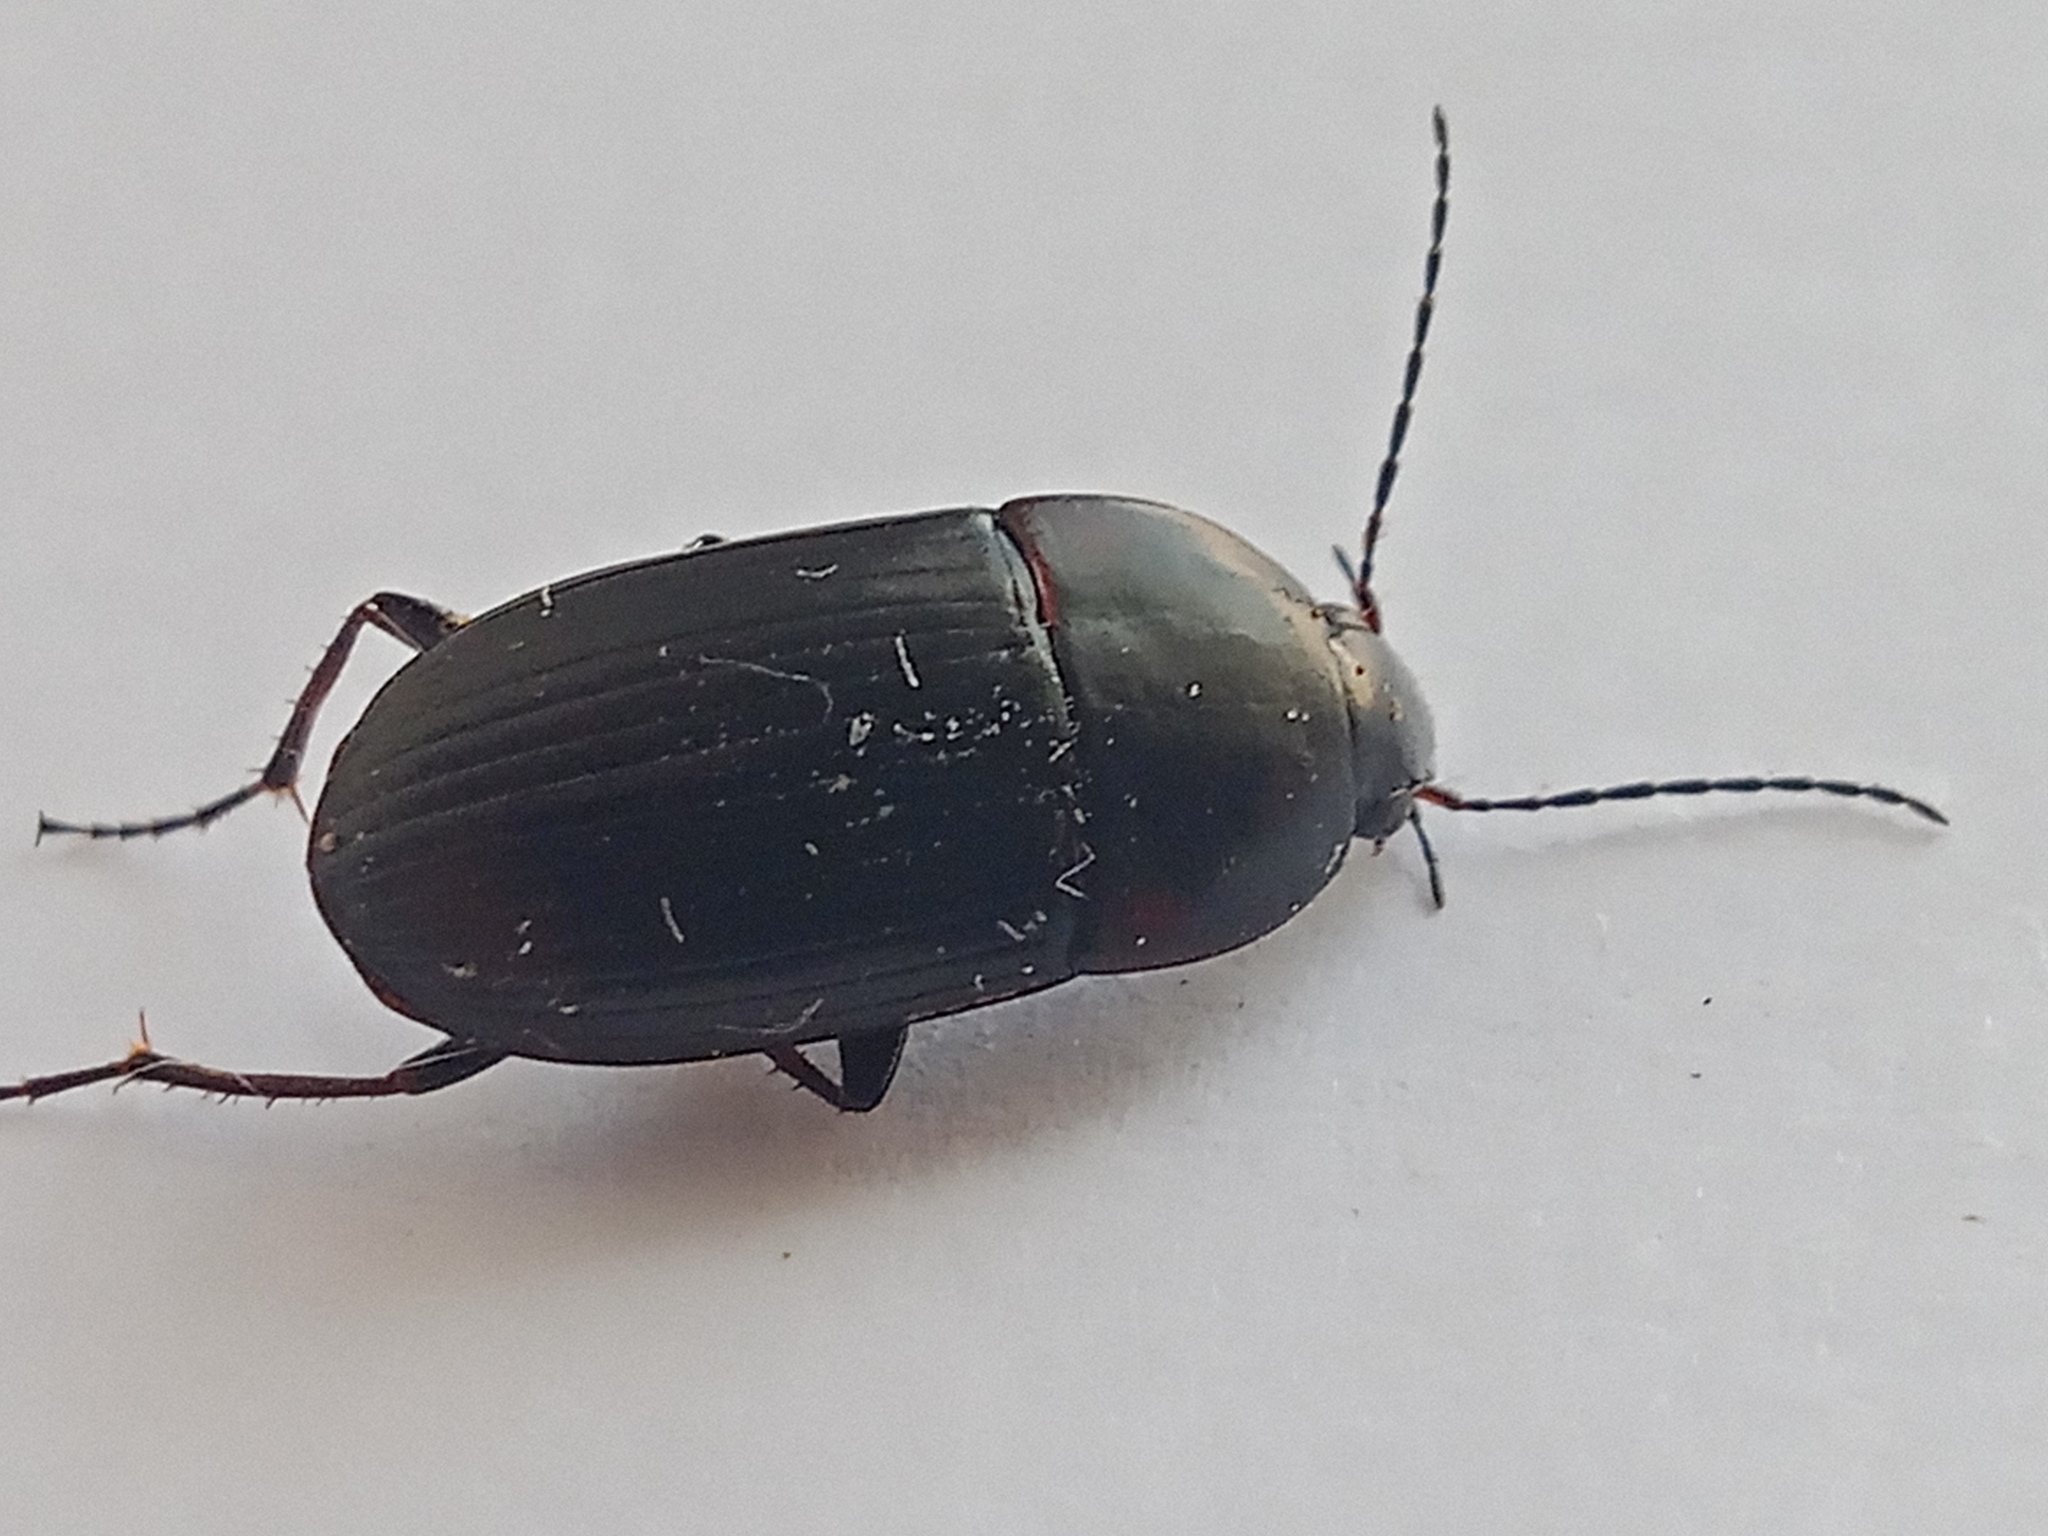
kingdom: Animalia
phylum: Arthropoda
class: Insecta
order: Coleoptera
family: Carabidae
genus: Oodes
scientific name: Oodes helopioides
